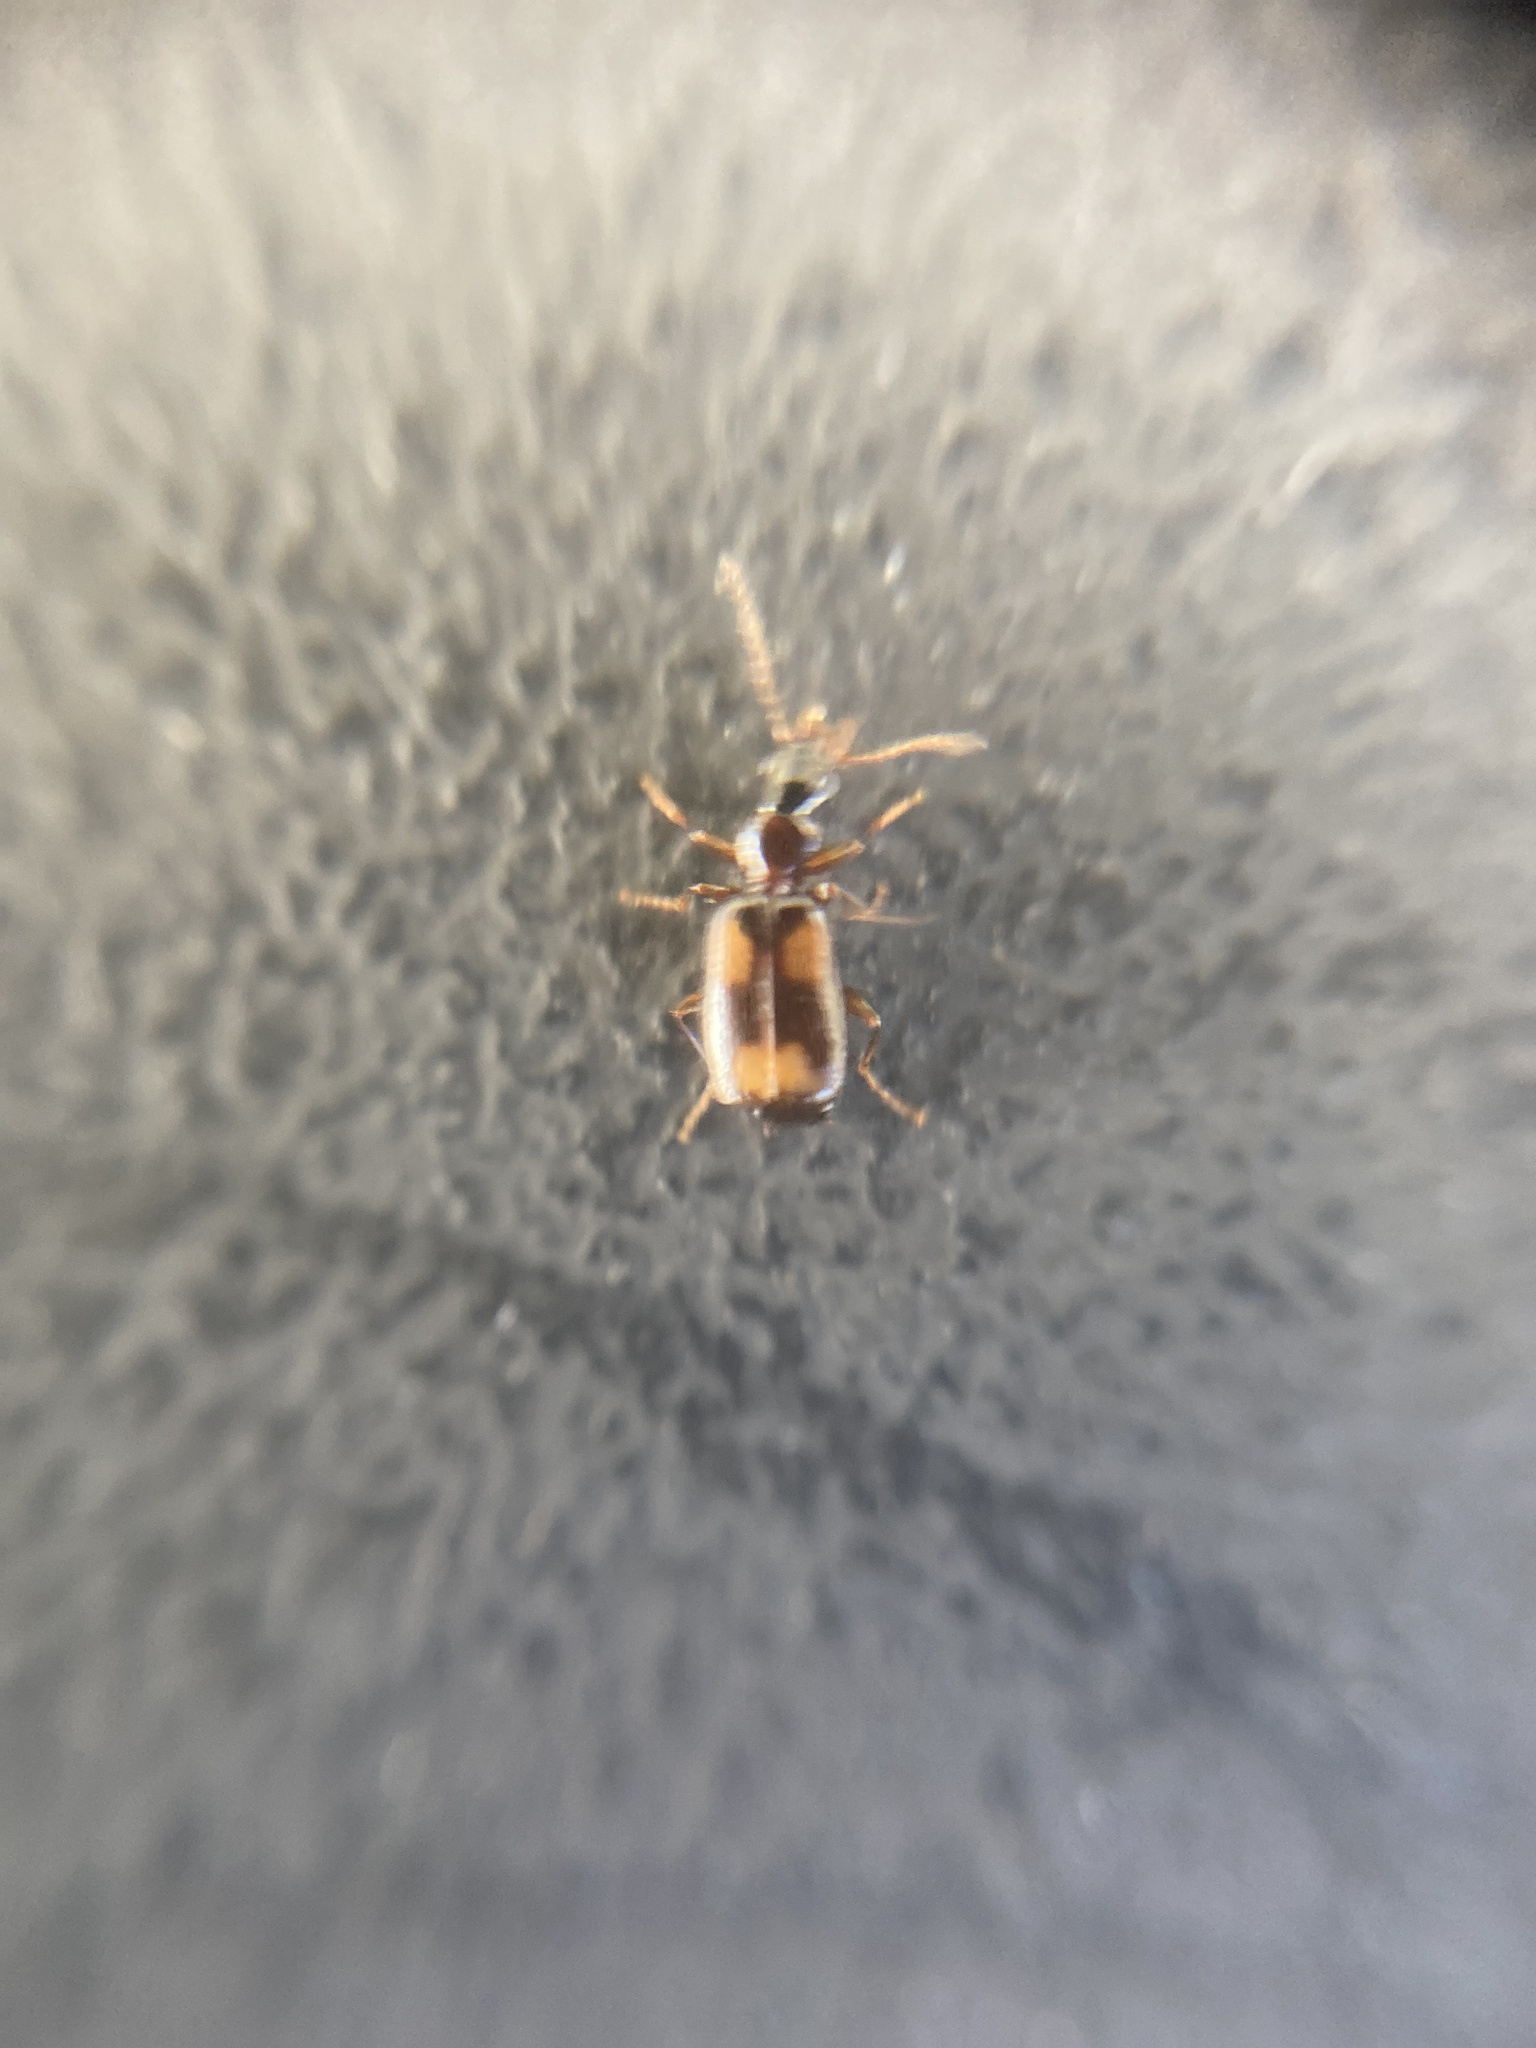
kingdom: Animalia
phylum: Arthropoda
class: Insecta
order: Coleoptera
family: Anthicidae
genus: Anthicus
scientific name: Anthicus antherinus
